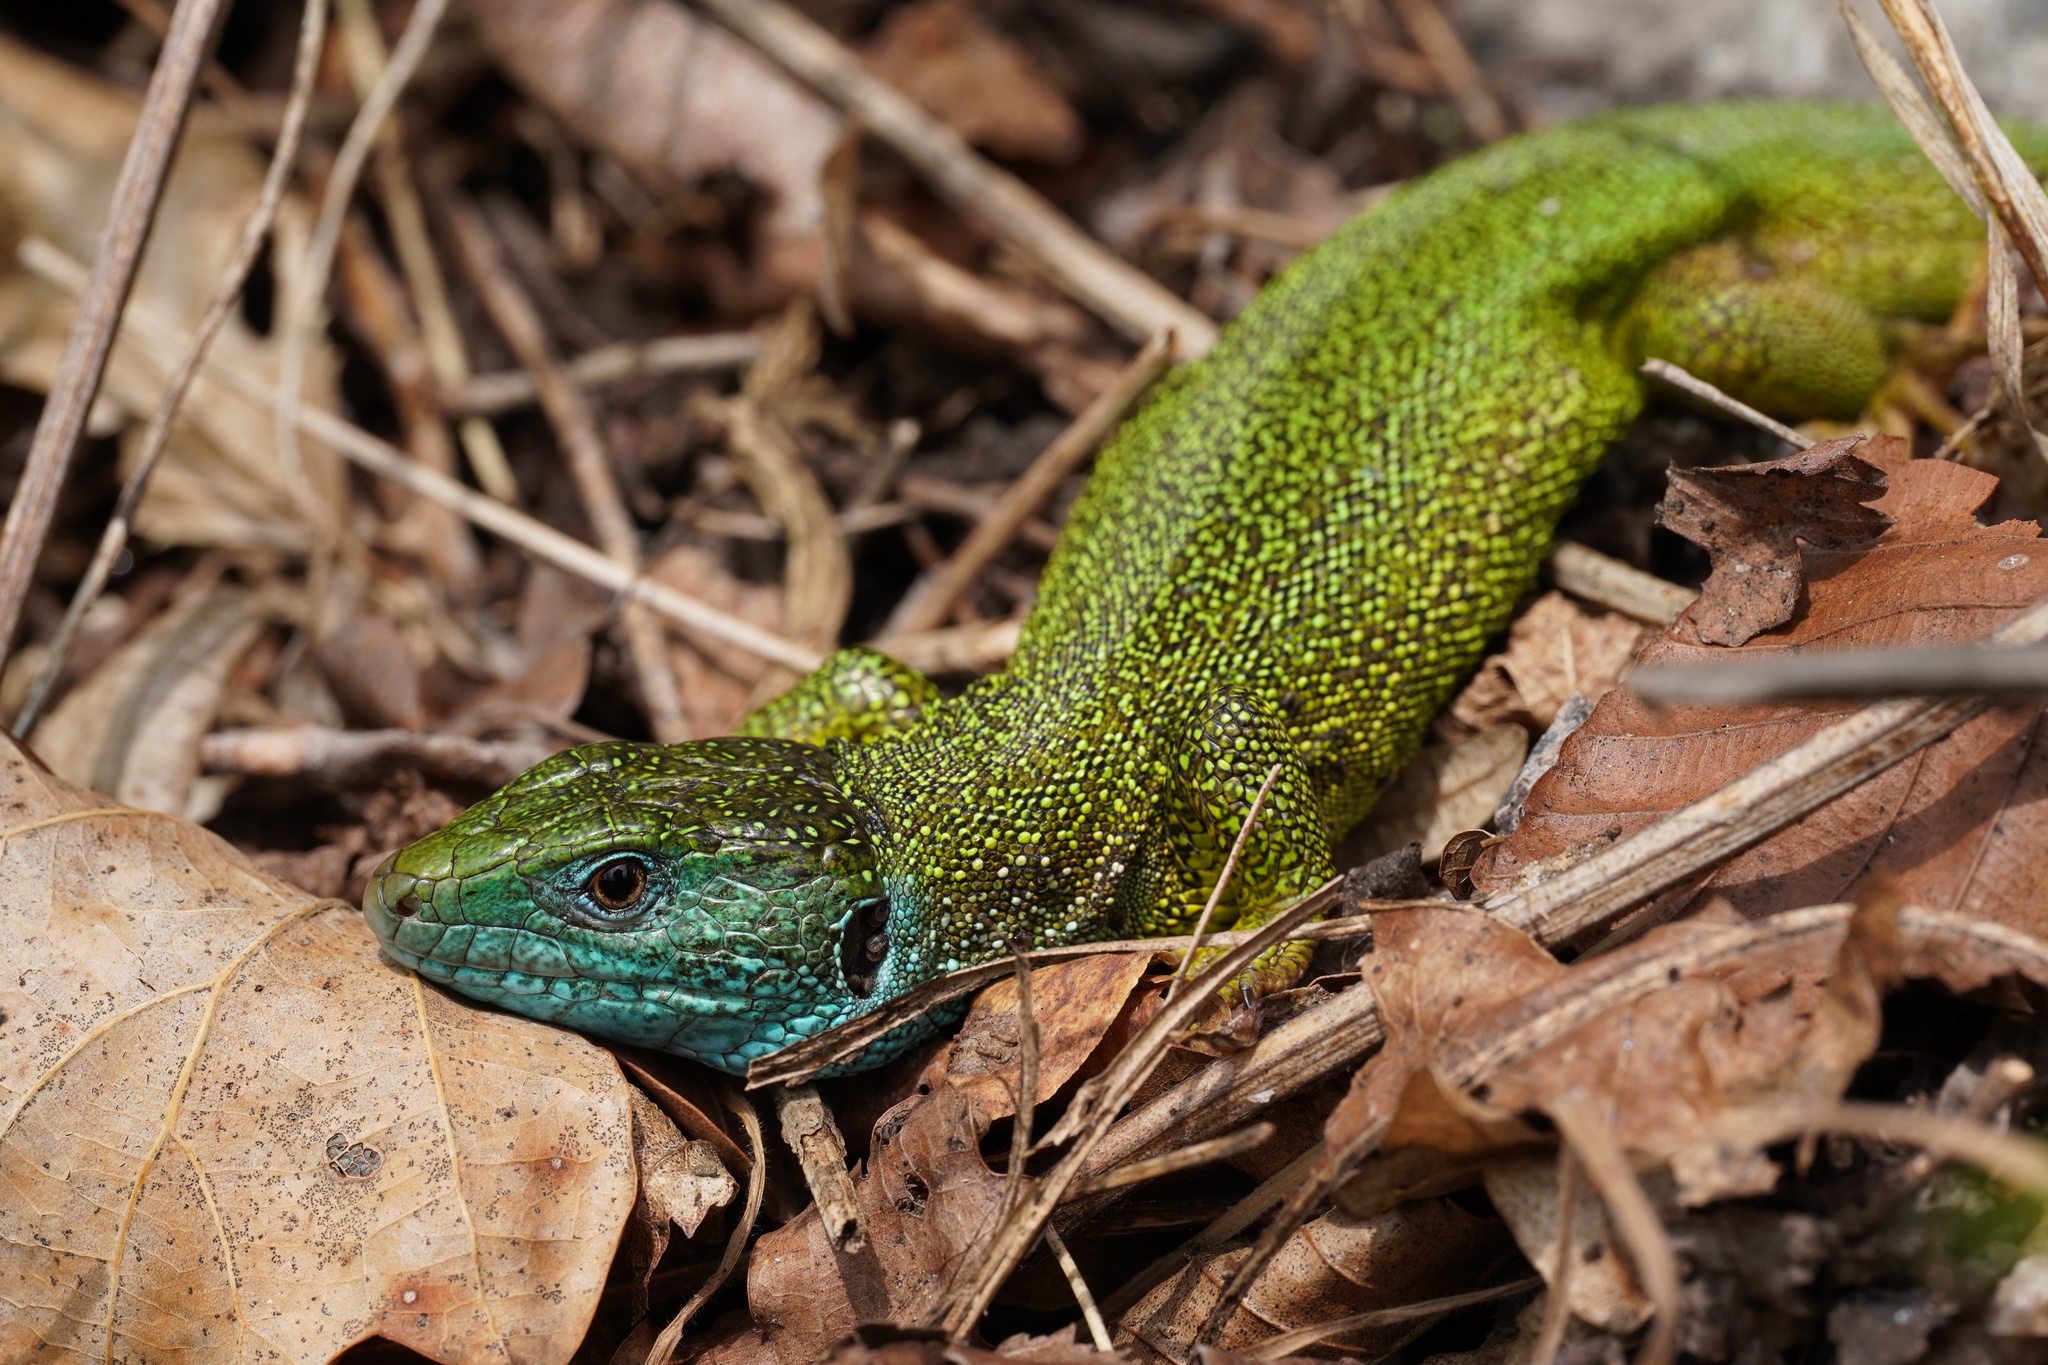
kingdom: Animalia
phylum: Chordata
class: Squamata
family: Lacertidae
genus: Lacerta
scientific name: Lacerta viridis
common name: European green lizard
